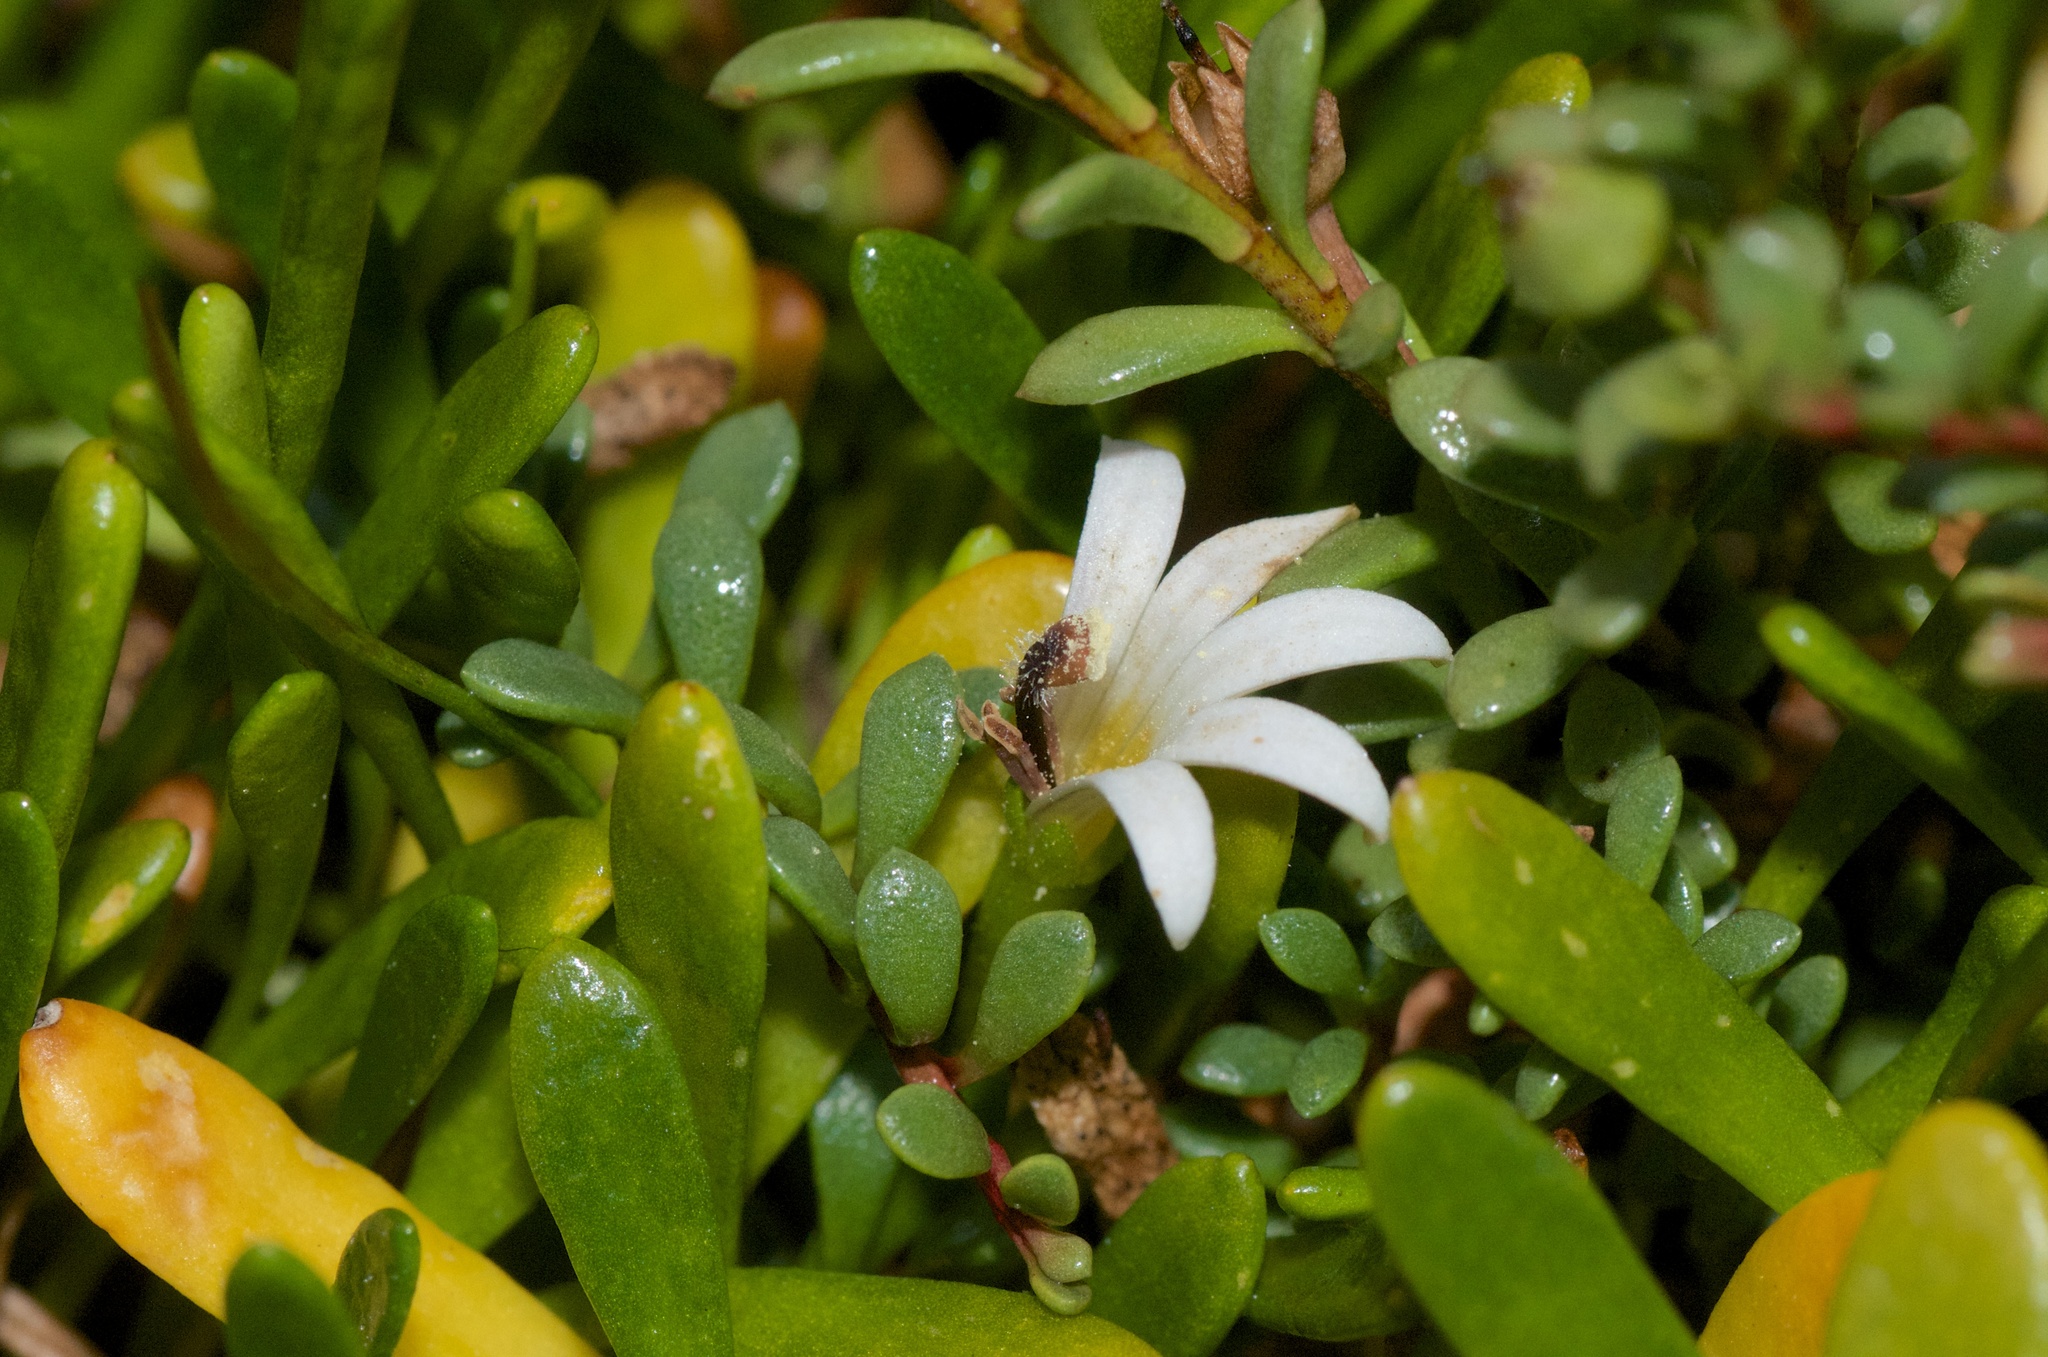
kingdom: Plantae
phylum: Tracheophyta
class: Magnoliopsida
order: Asterales
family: Goodeniaceae
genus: Goodenia
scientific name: Goodenia radicans
